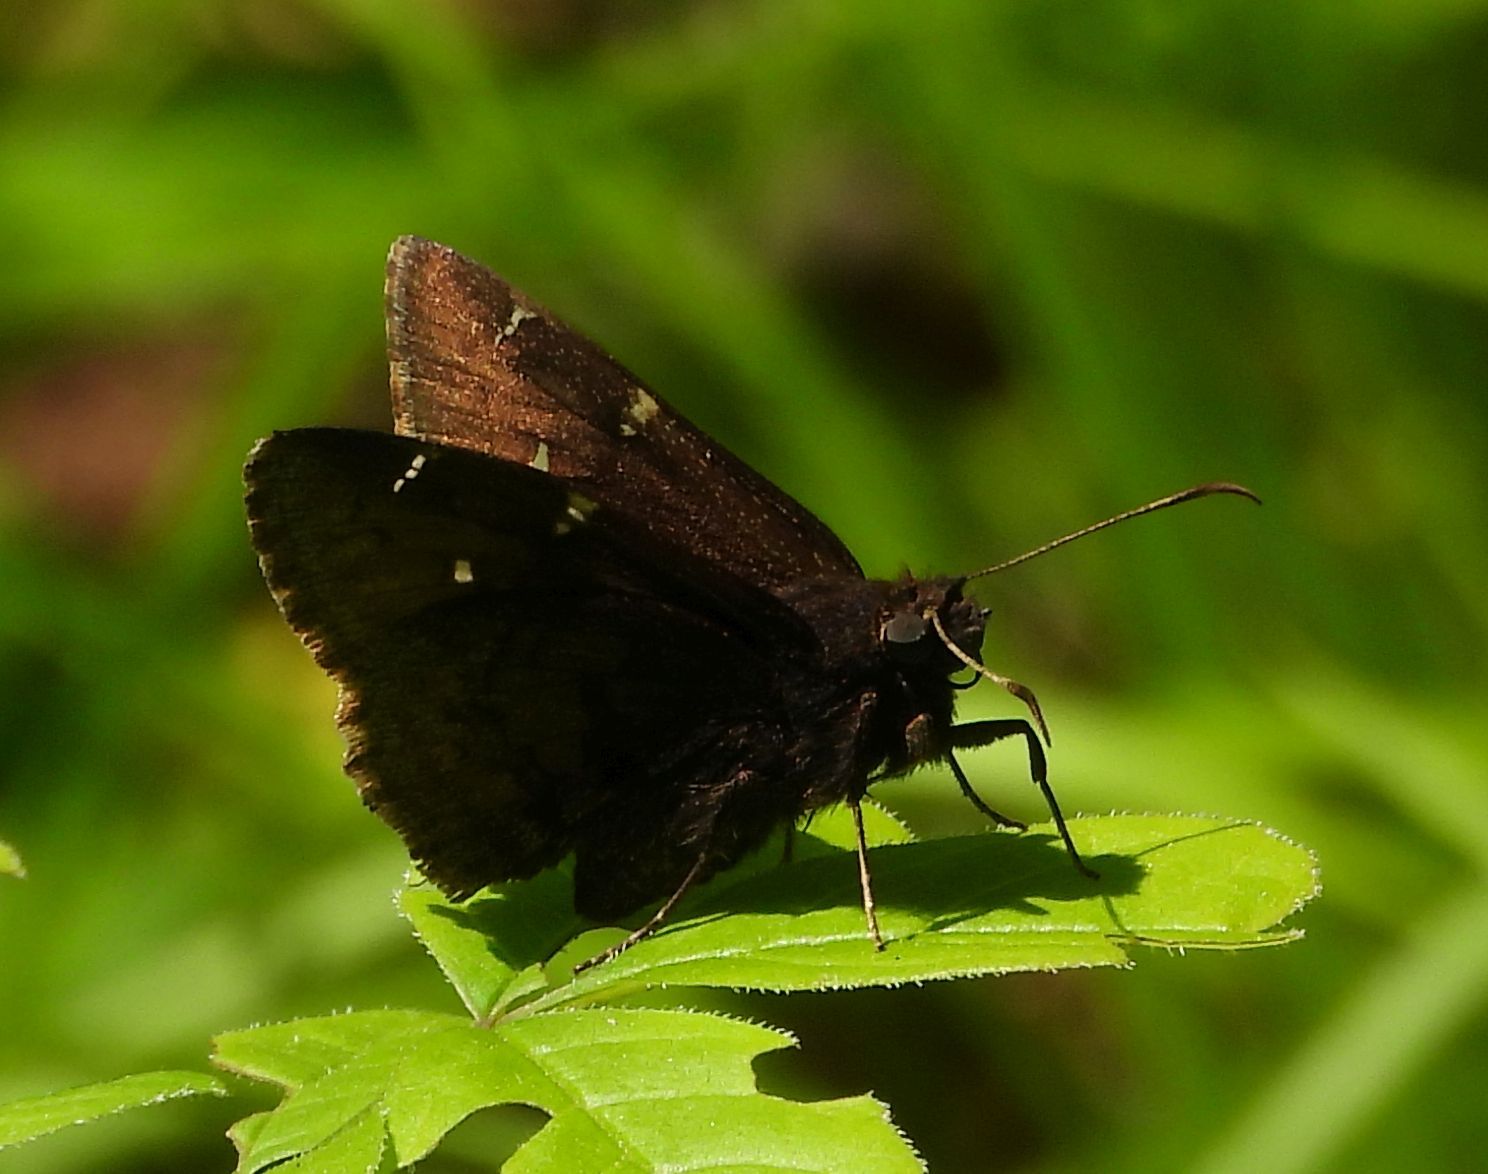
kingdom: Animalia
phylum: Arthropoda
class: Insecta
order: Lepidoptera
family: Hesperiidae
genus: Thorybes
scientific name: Thorybes pylades
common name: Northern cloudywing
